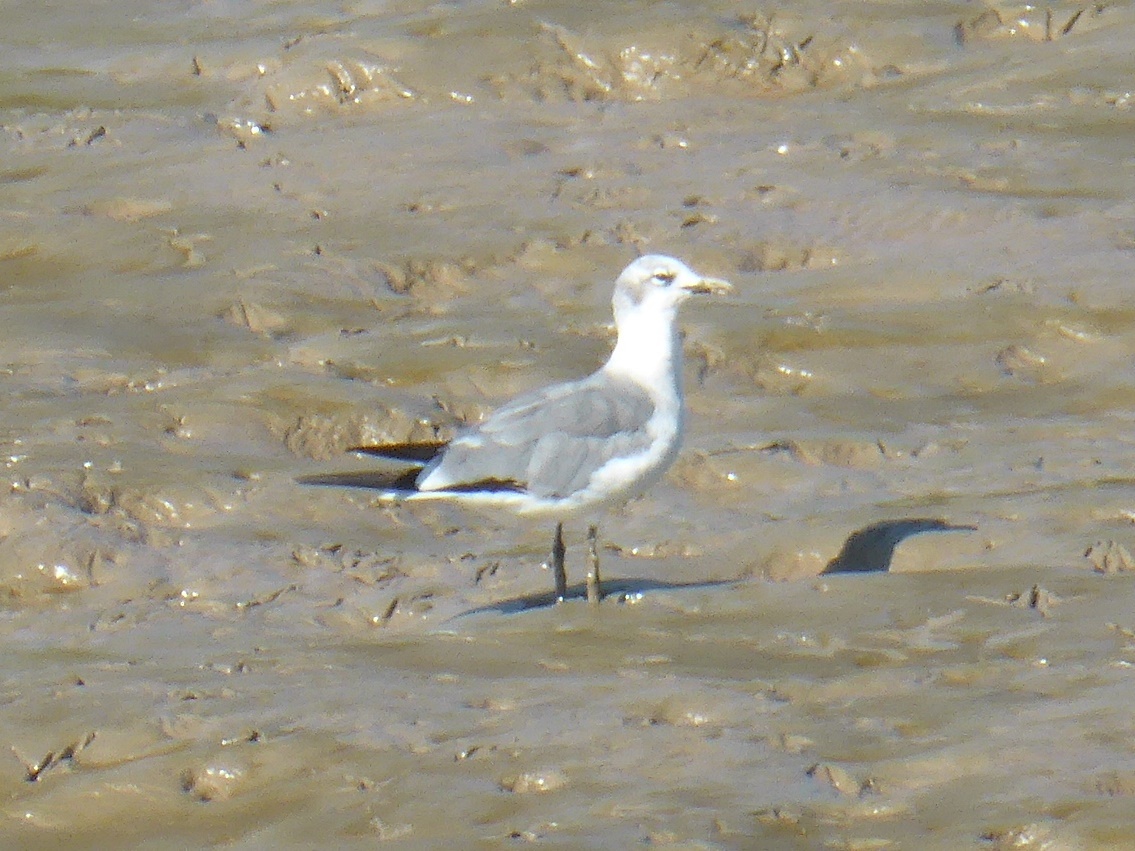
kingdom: Animalia
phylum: Chordata
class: Aves
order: Charadriiformes
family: Laridae
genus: Leucophaeus
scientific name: Leucophaeus atricilla
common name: Laughing gull
